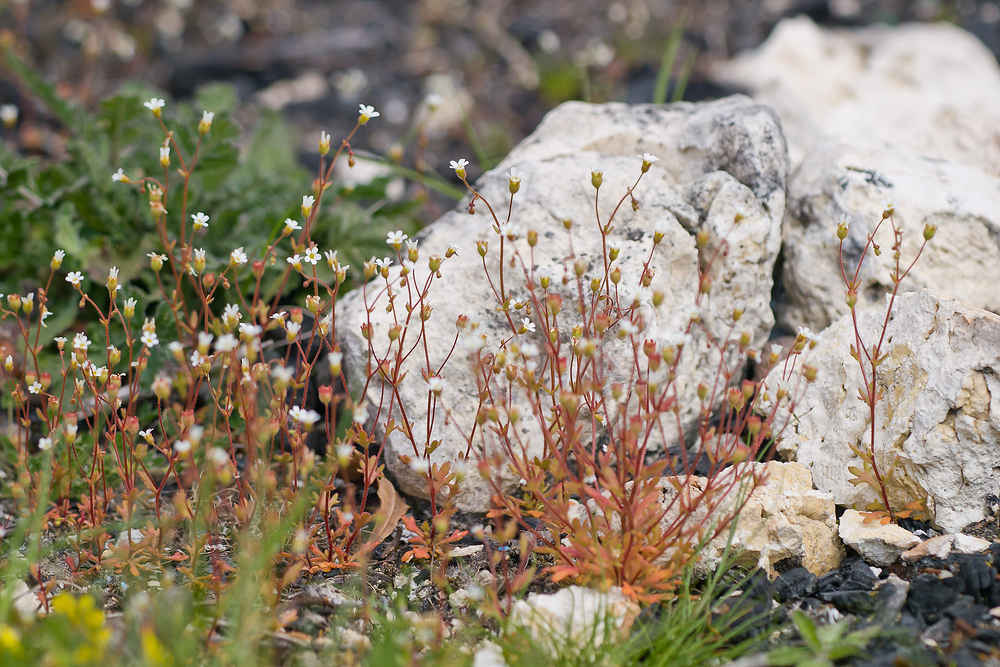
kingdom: Plantae
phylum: Tracheophyta
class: Magnoliopsida
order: Saxifragales
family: Saxifragaceae
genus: Saxifraga
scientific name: Saxifraga tridactylites
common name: Rue-leaved saxifrage
